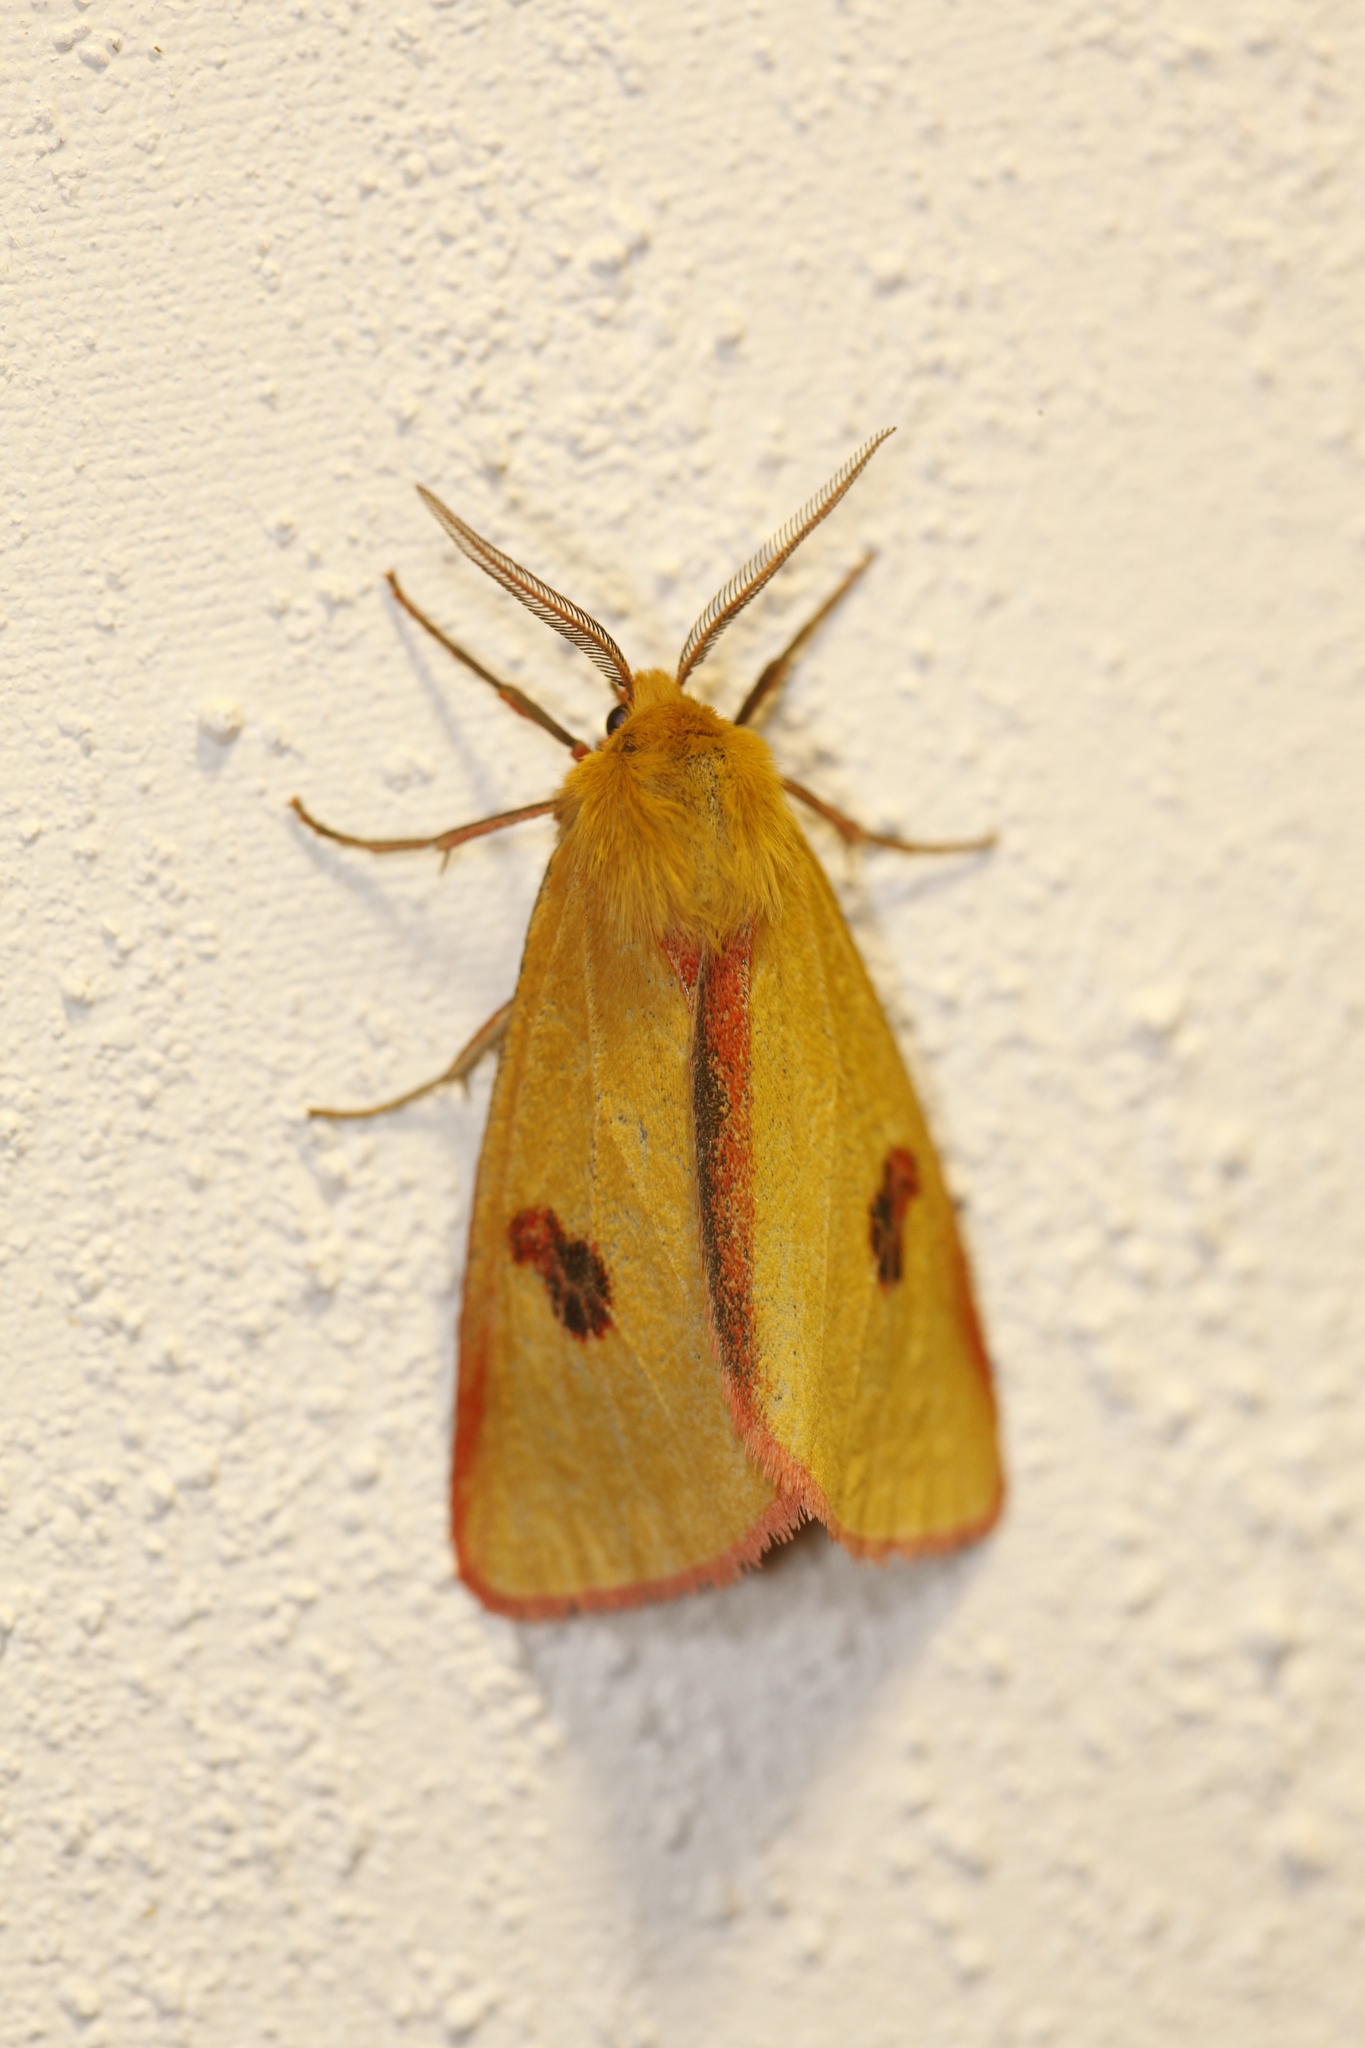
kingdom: Animalia
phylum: Arthropoda
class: Insecta
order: Lepidoptera
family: Erebidae
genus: Diacrisia
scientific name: Diacrisia sannio
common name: Clouded buff
